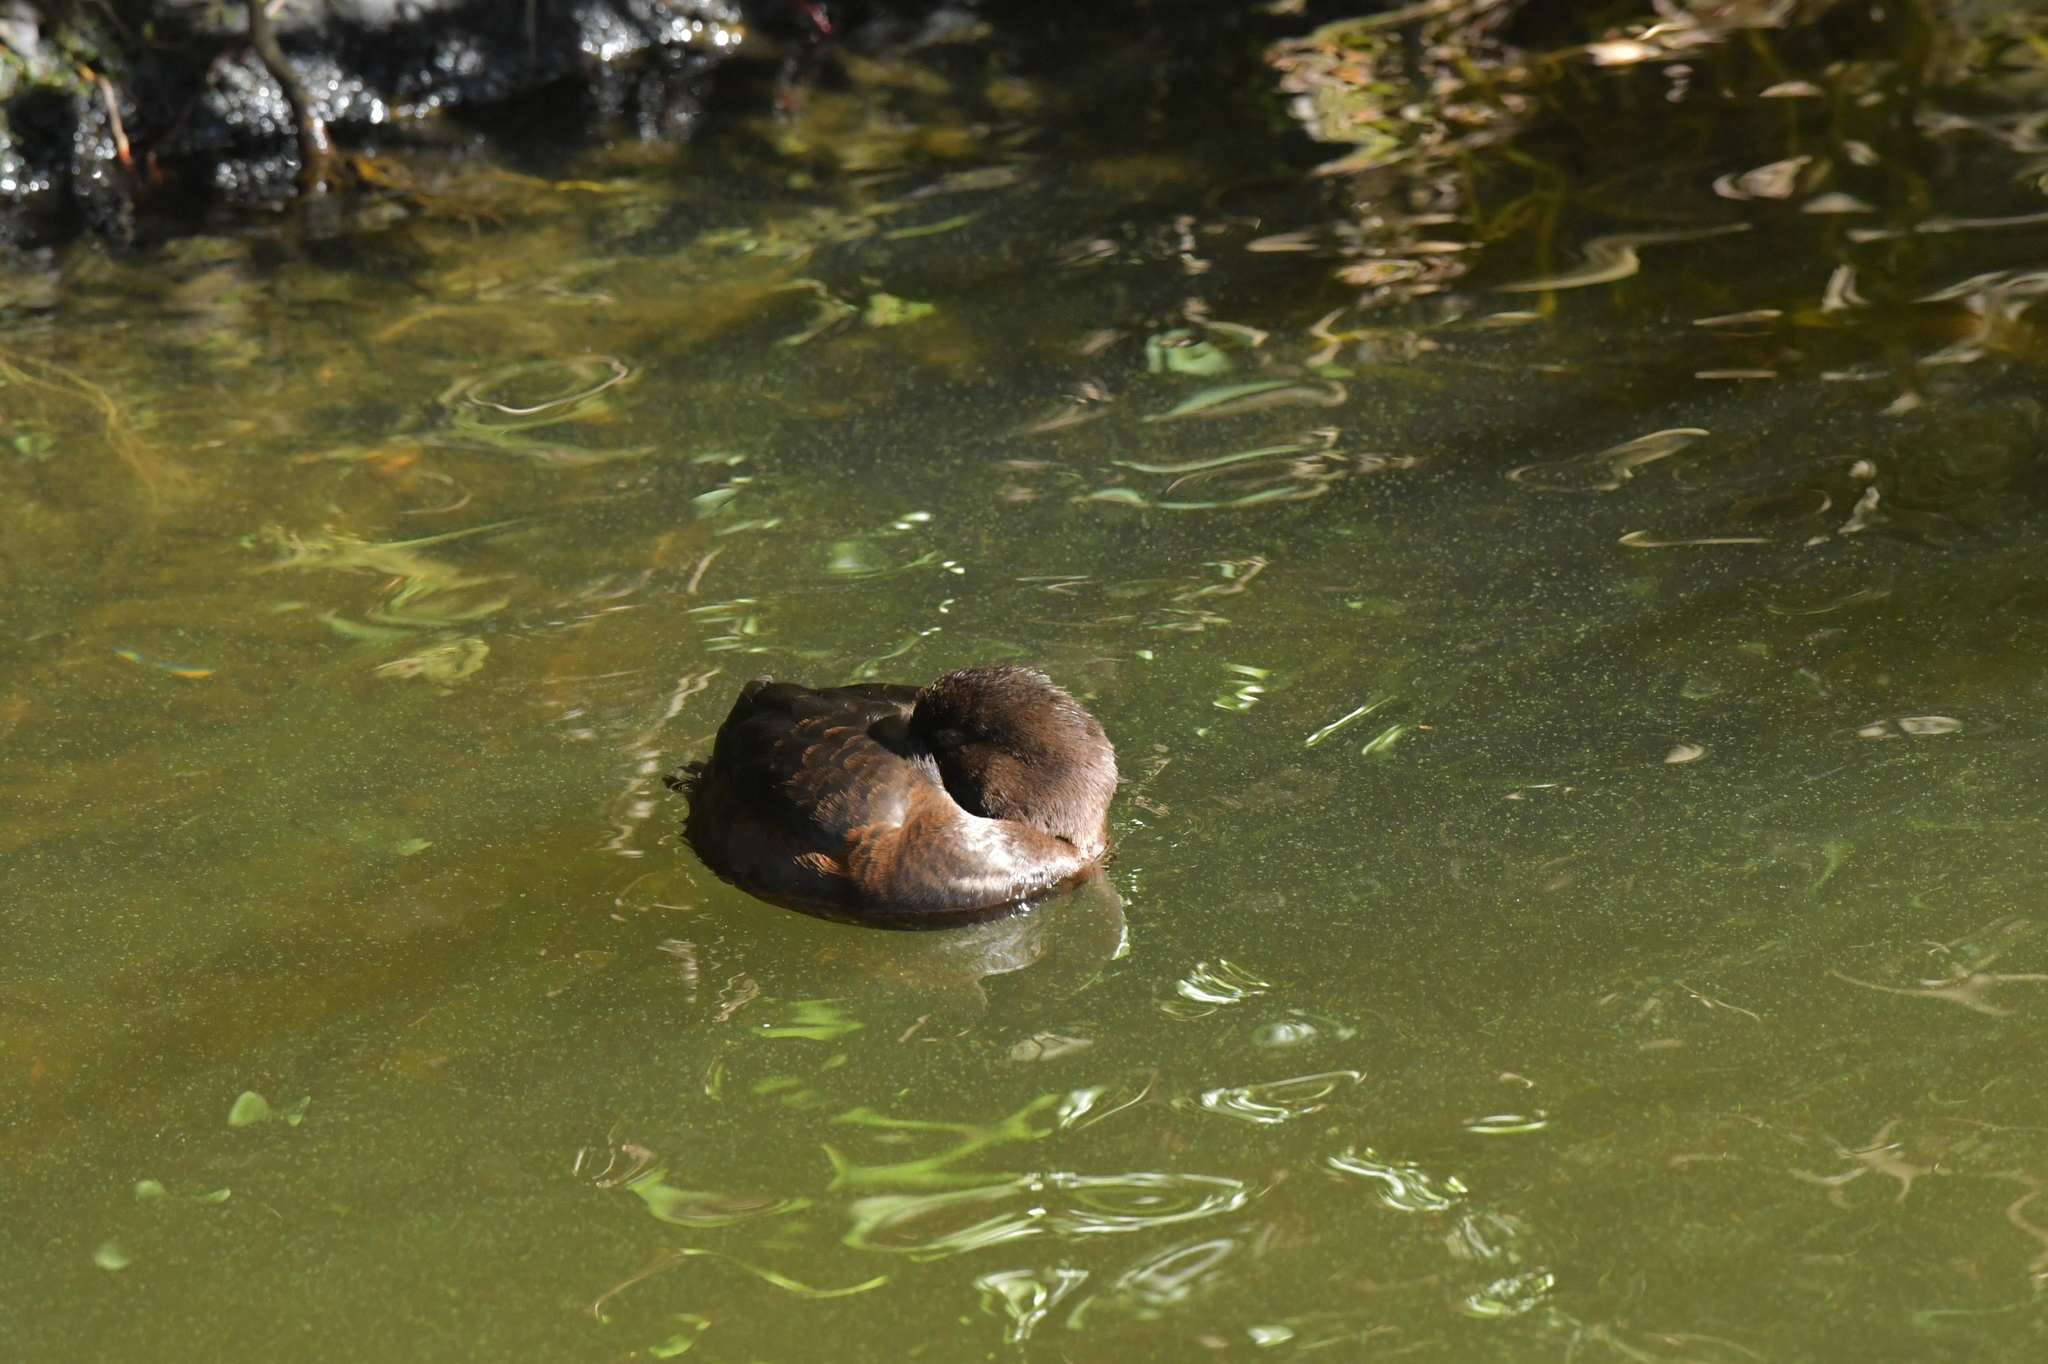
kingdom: Animalia
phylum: Chordata
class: Aves
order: Anseriformes
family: Anatidae
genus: Aythya
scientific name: Aythya novaeseelandiae
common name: New zealand scaup
